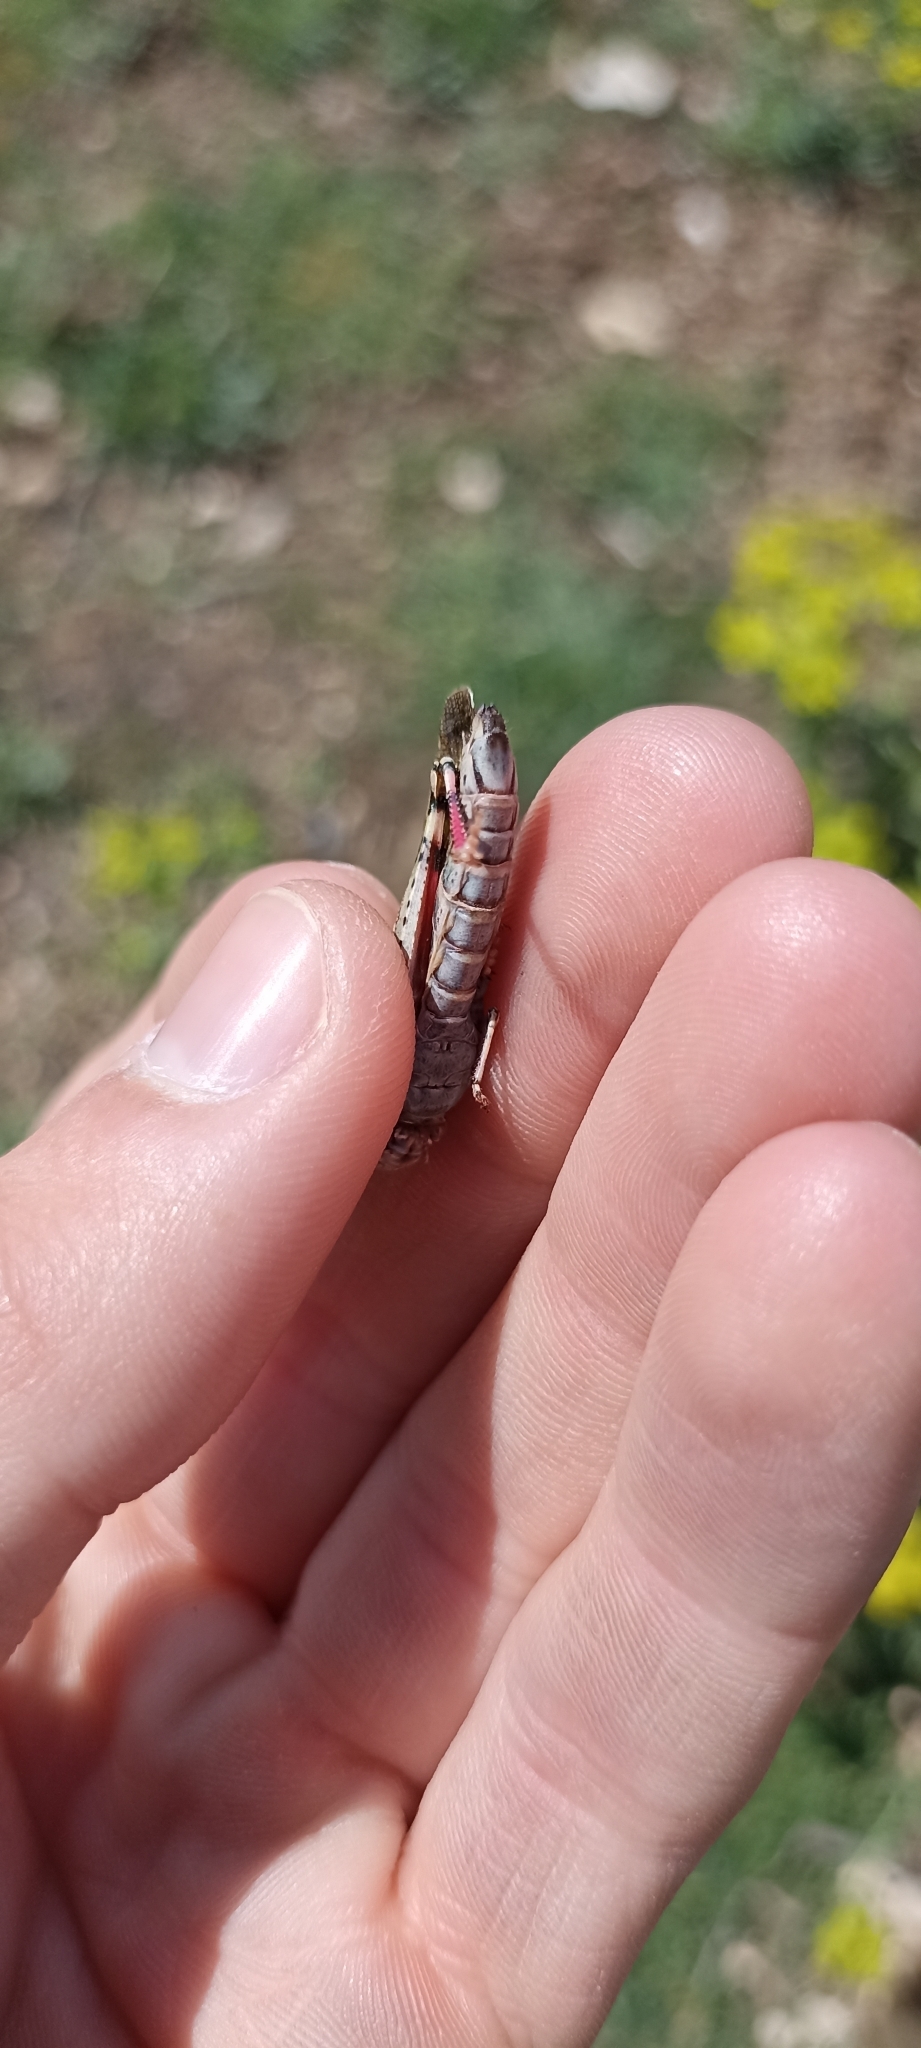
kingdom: Animalia
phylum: Arthropoda
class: Insecta
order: Orthoptera
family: Acrididae
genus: Aiolopus
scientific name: Aiolopus strepens
